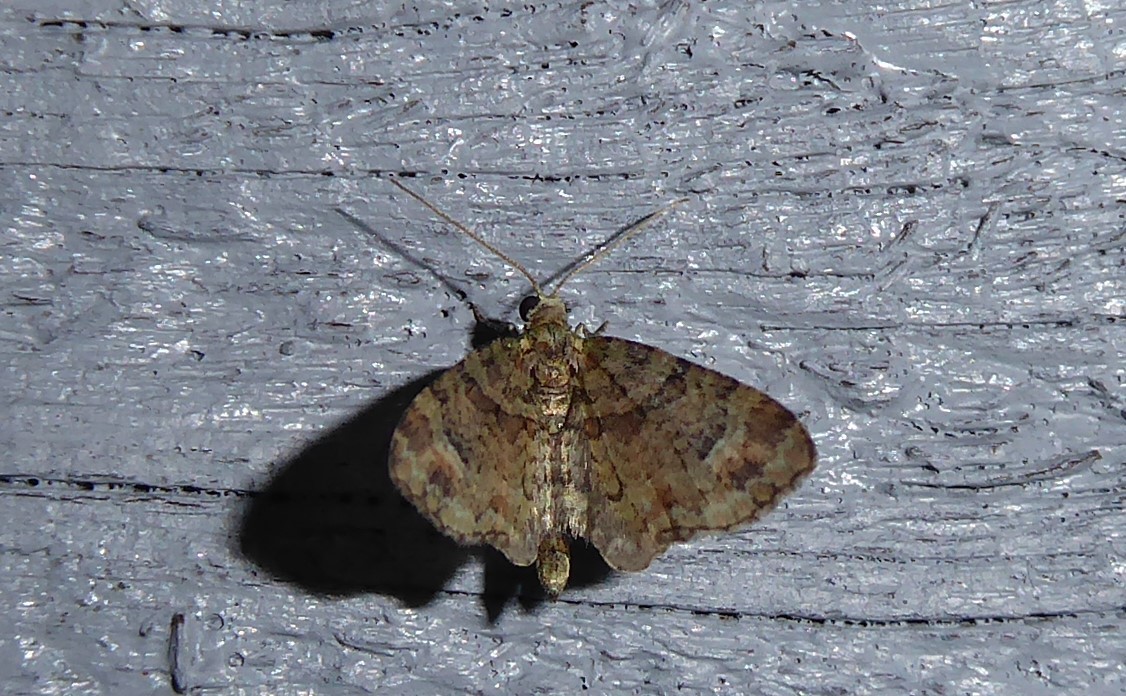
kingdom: Animalia
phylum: Arthropoda
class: Insecta
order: Lepidoptera
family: Geometridae
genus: Idaea
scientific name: Idaea mutanda
